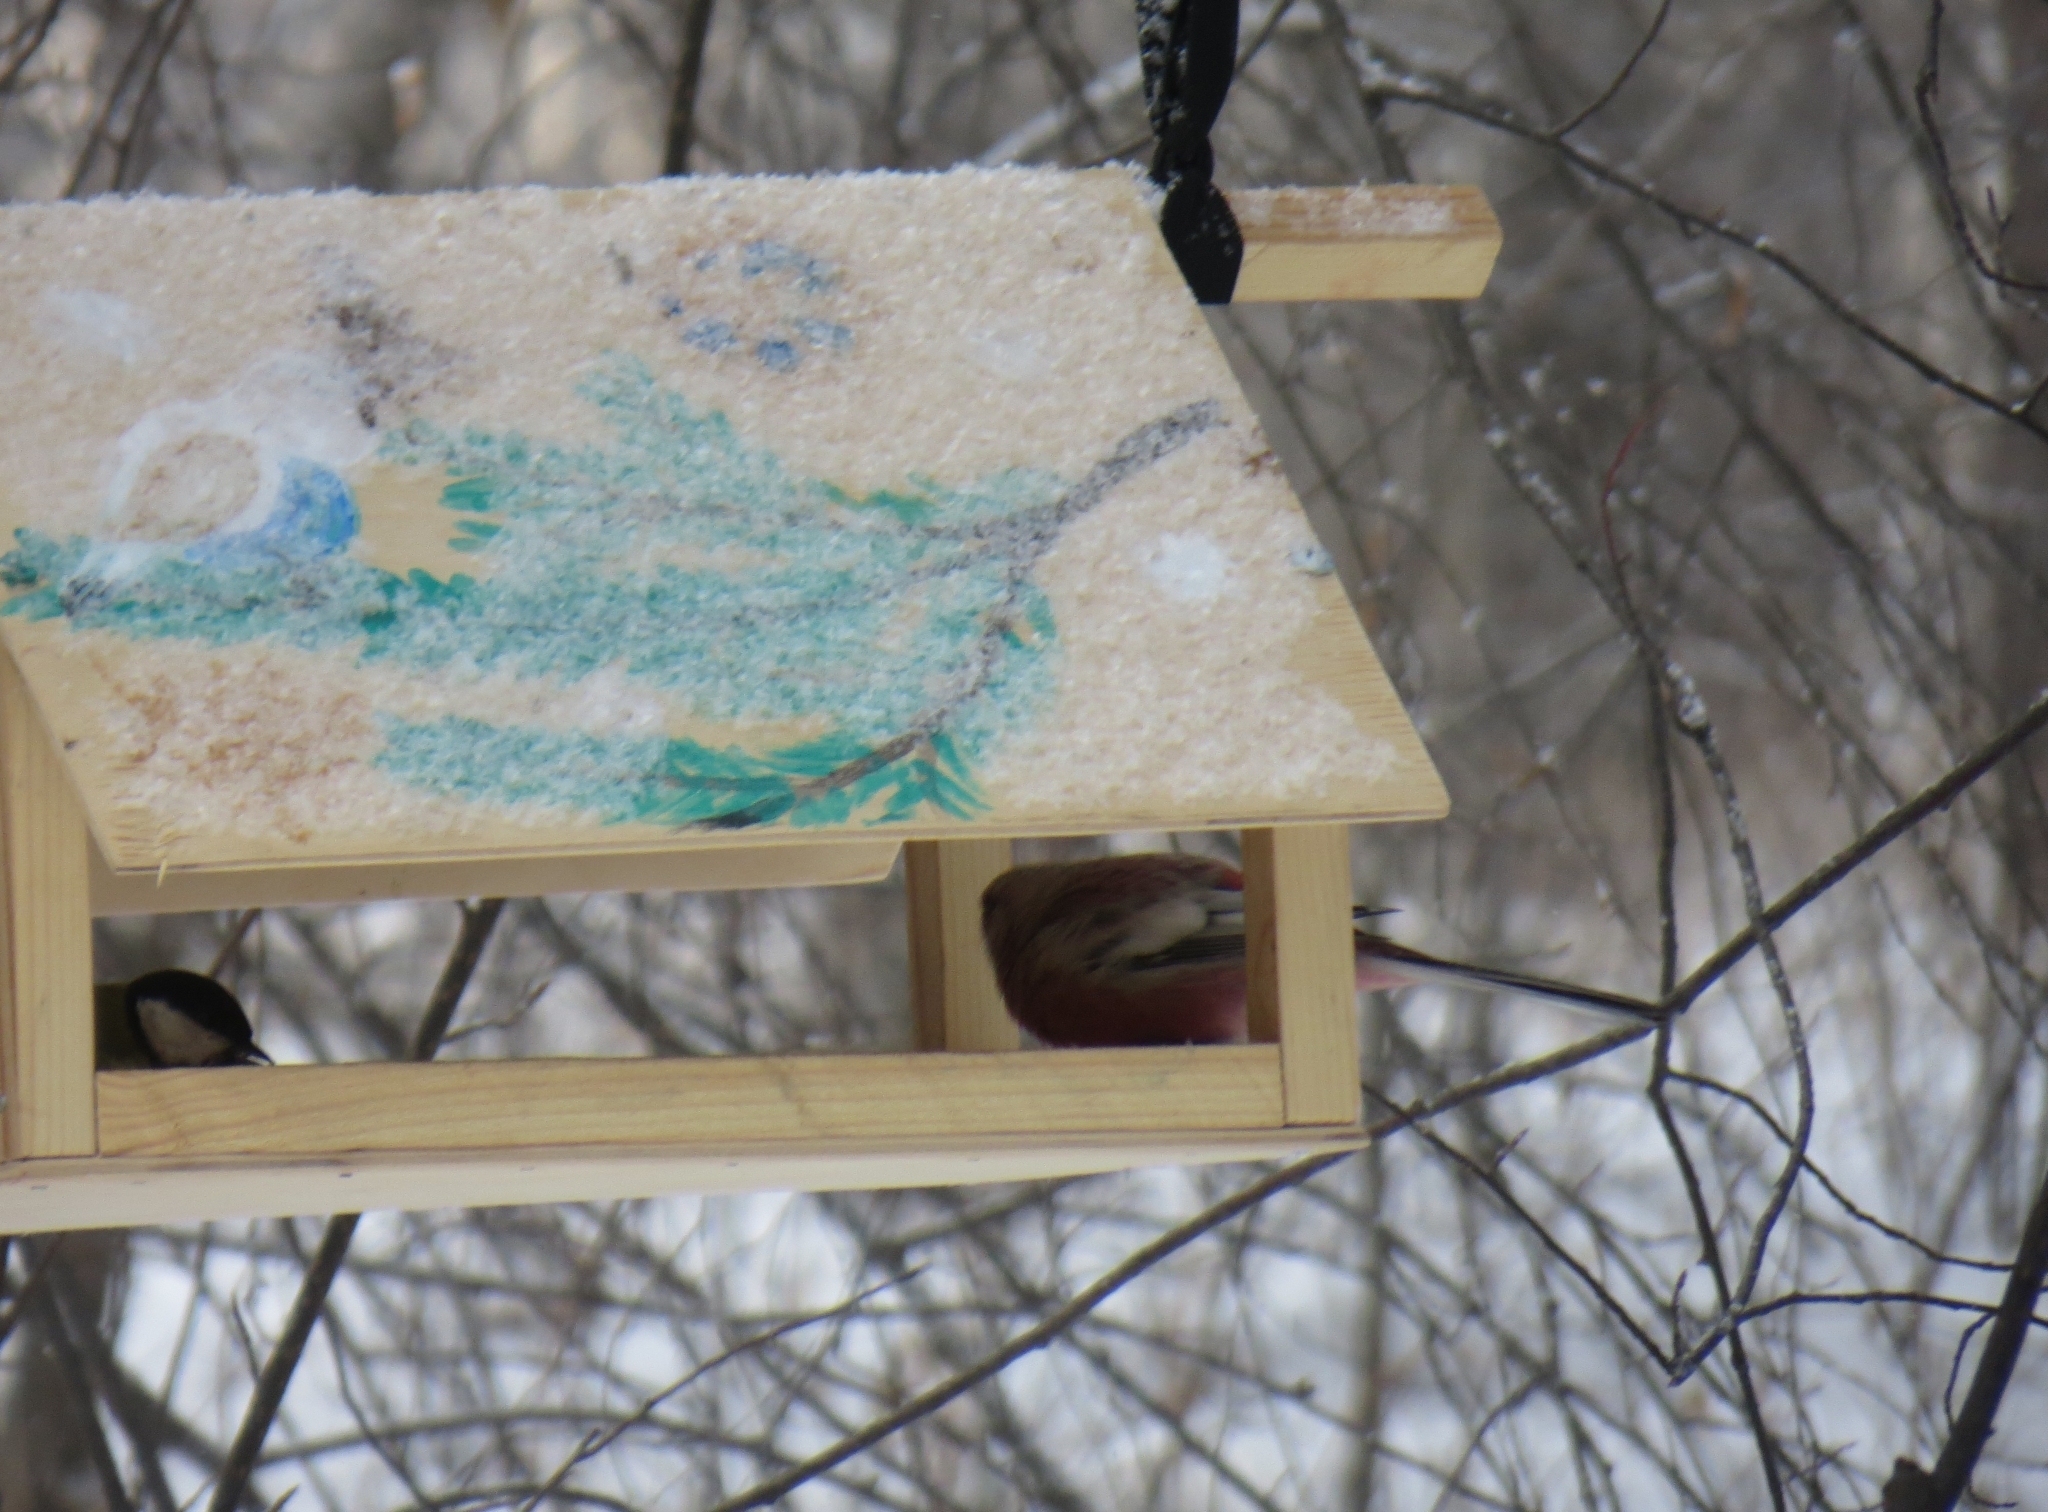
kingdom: Animalia
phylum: Chordata
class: Aves
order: Passeriformes
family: Fringillidae
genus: Carpodacus
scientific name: Carpodacus sibiricus
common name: Long-tailed rosefinch
